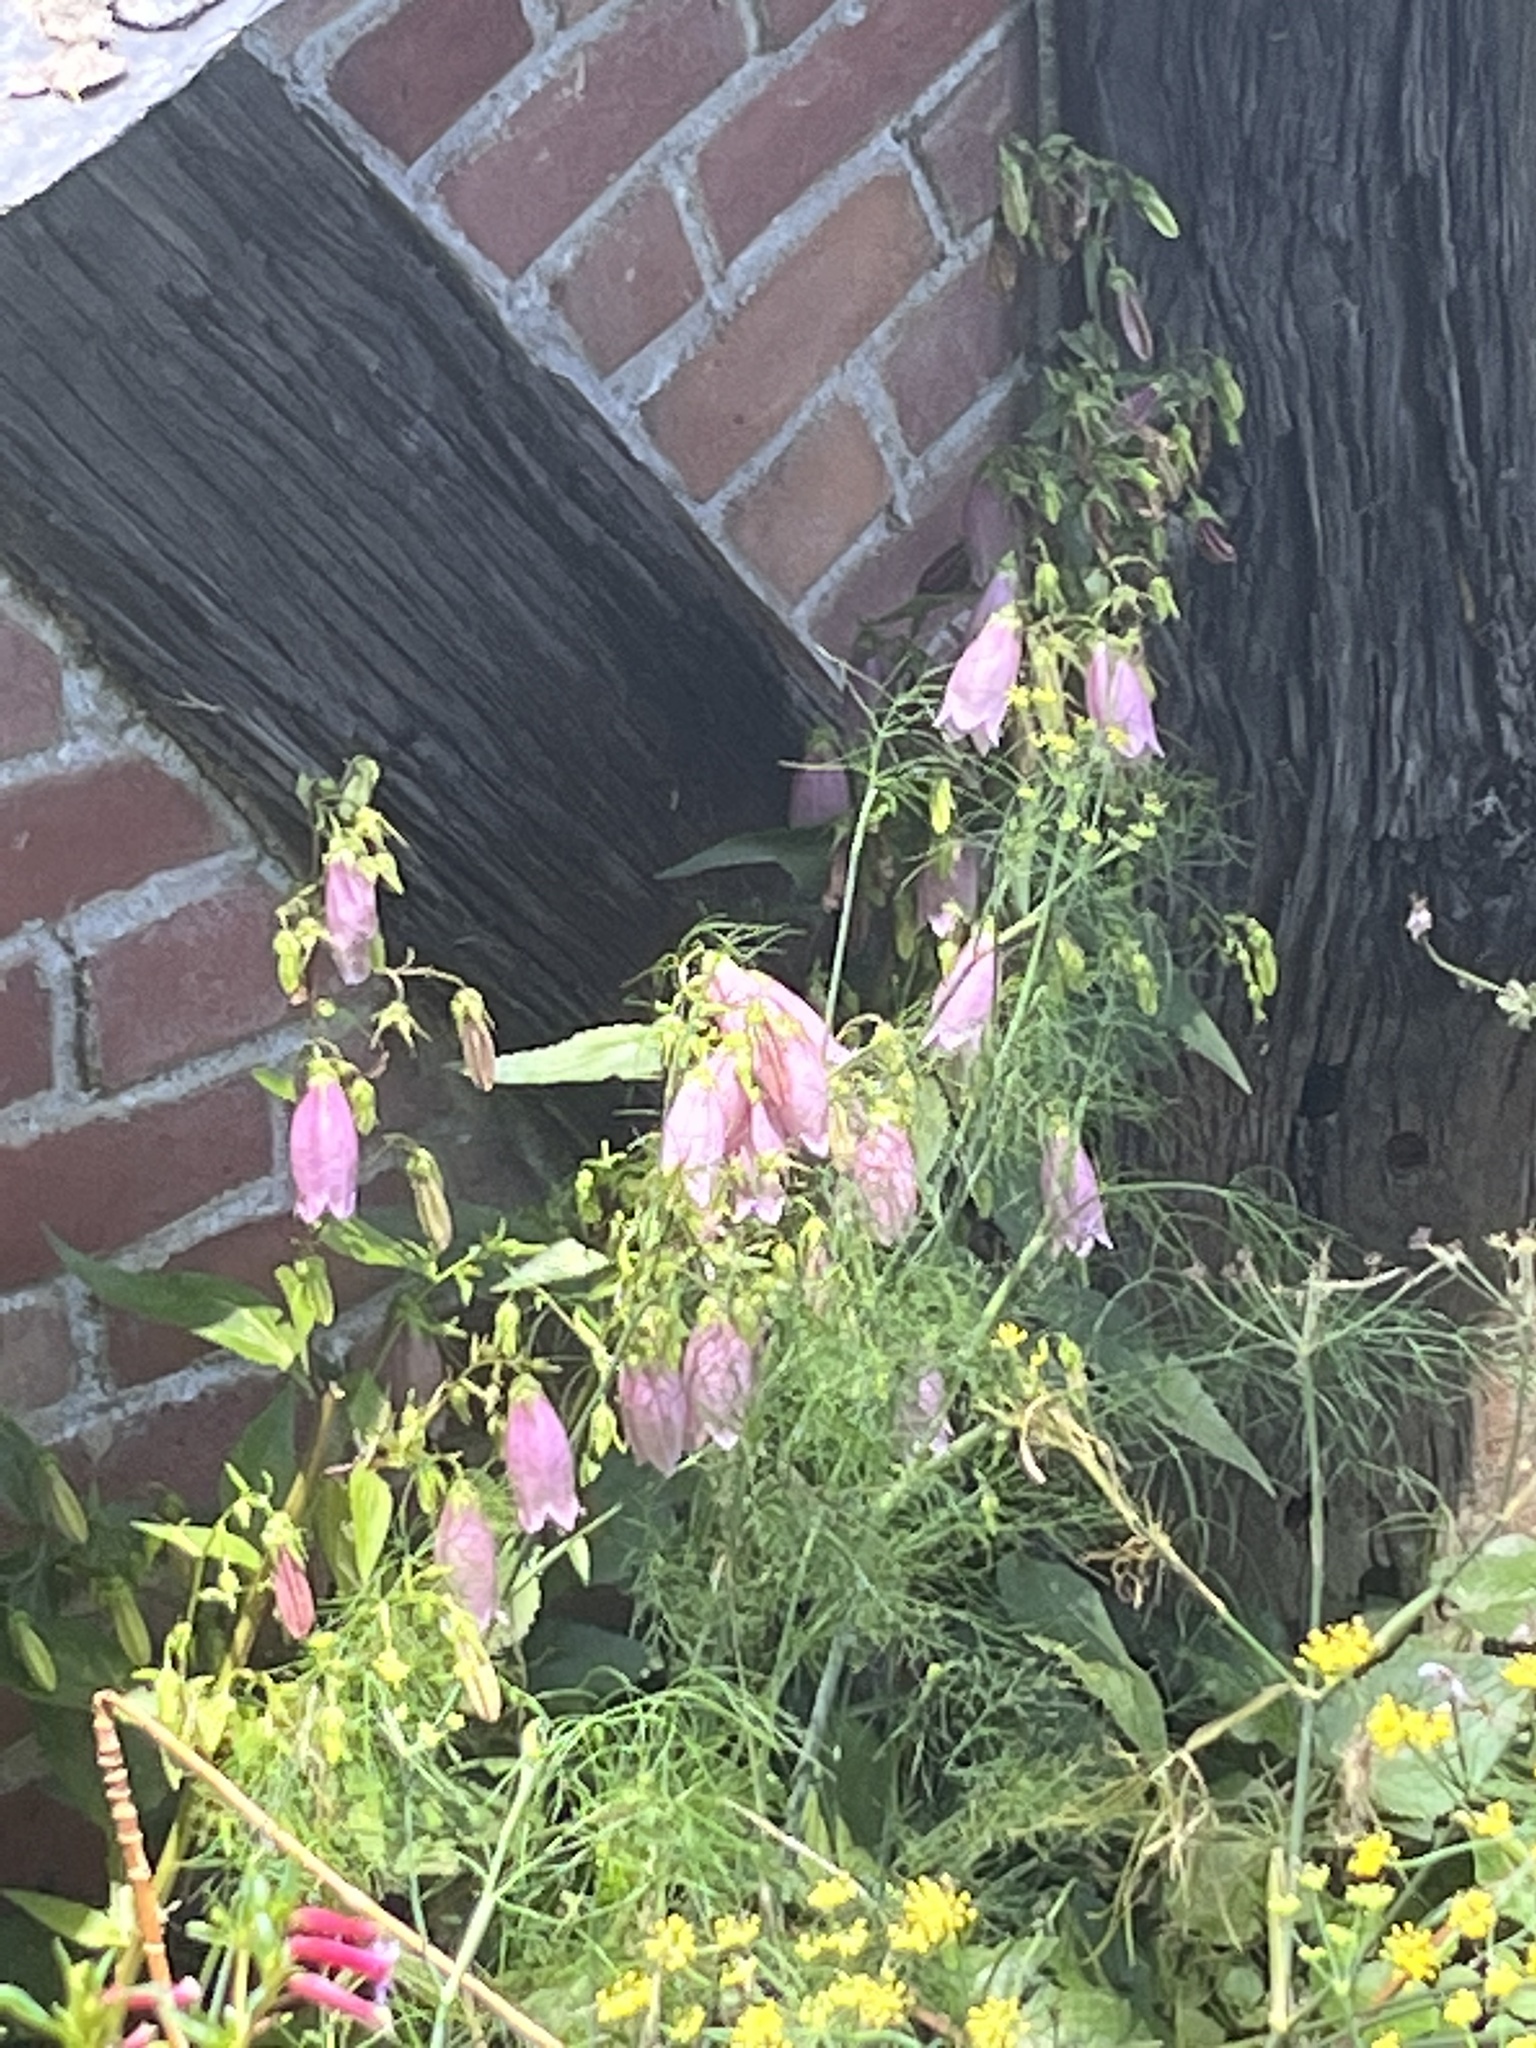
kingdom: Plantae
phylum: Tracheophyta
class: Magnoliopsida
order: Asterales
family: Campanulaceae
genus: Campanula
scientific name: Campanula punctata
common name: Spotted bellflower
